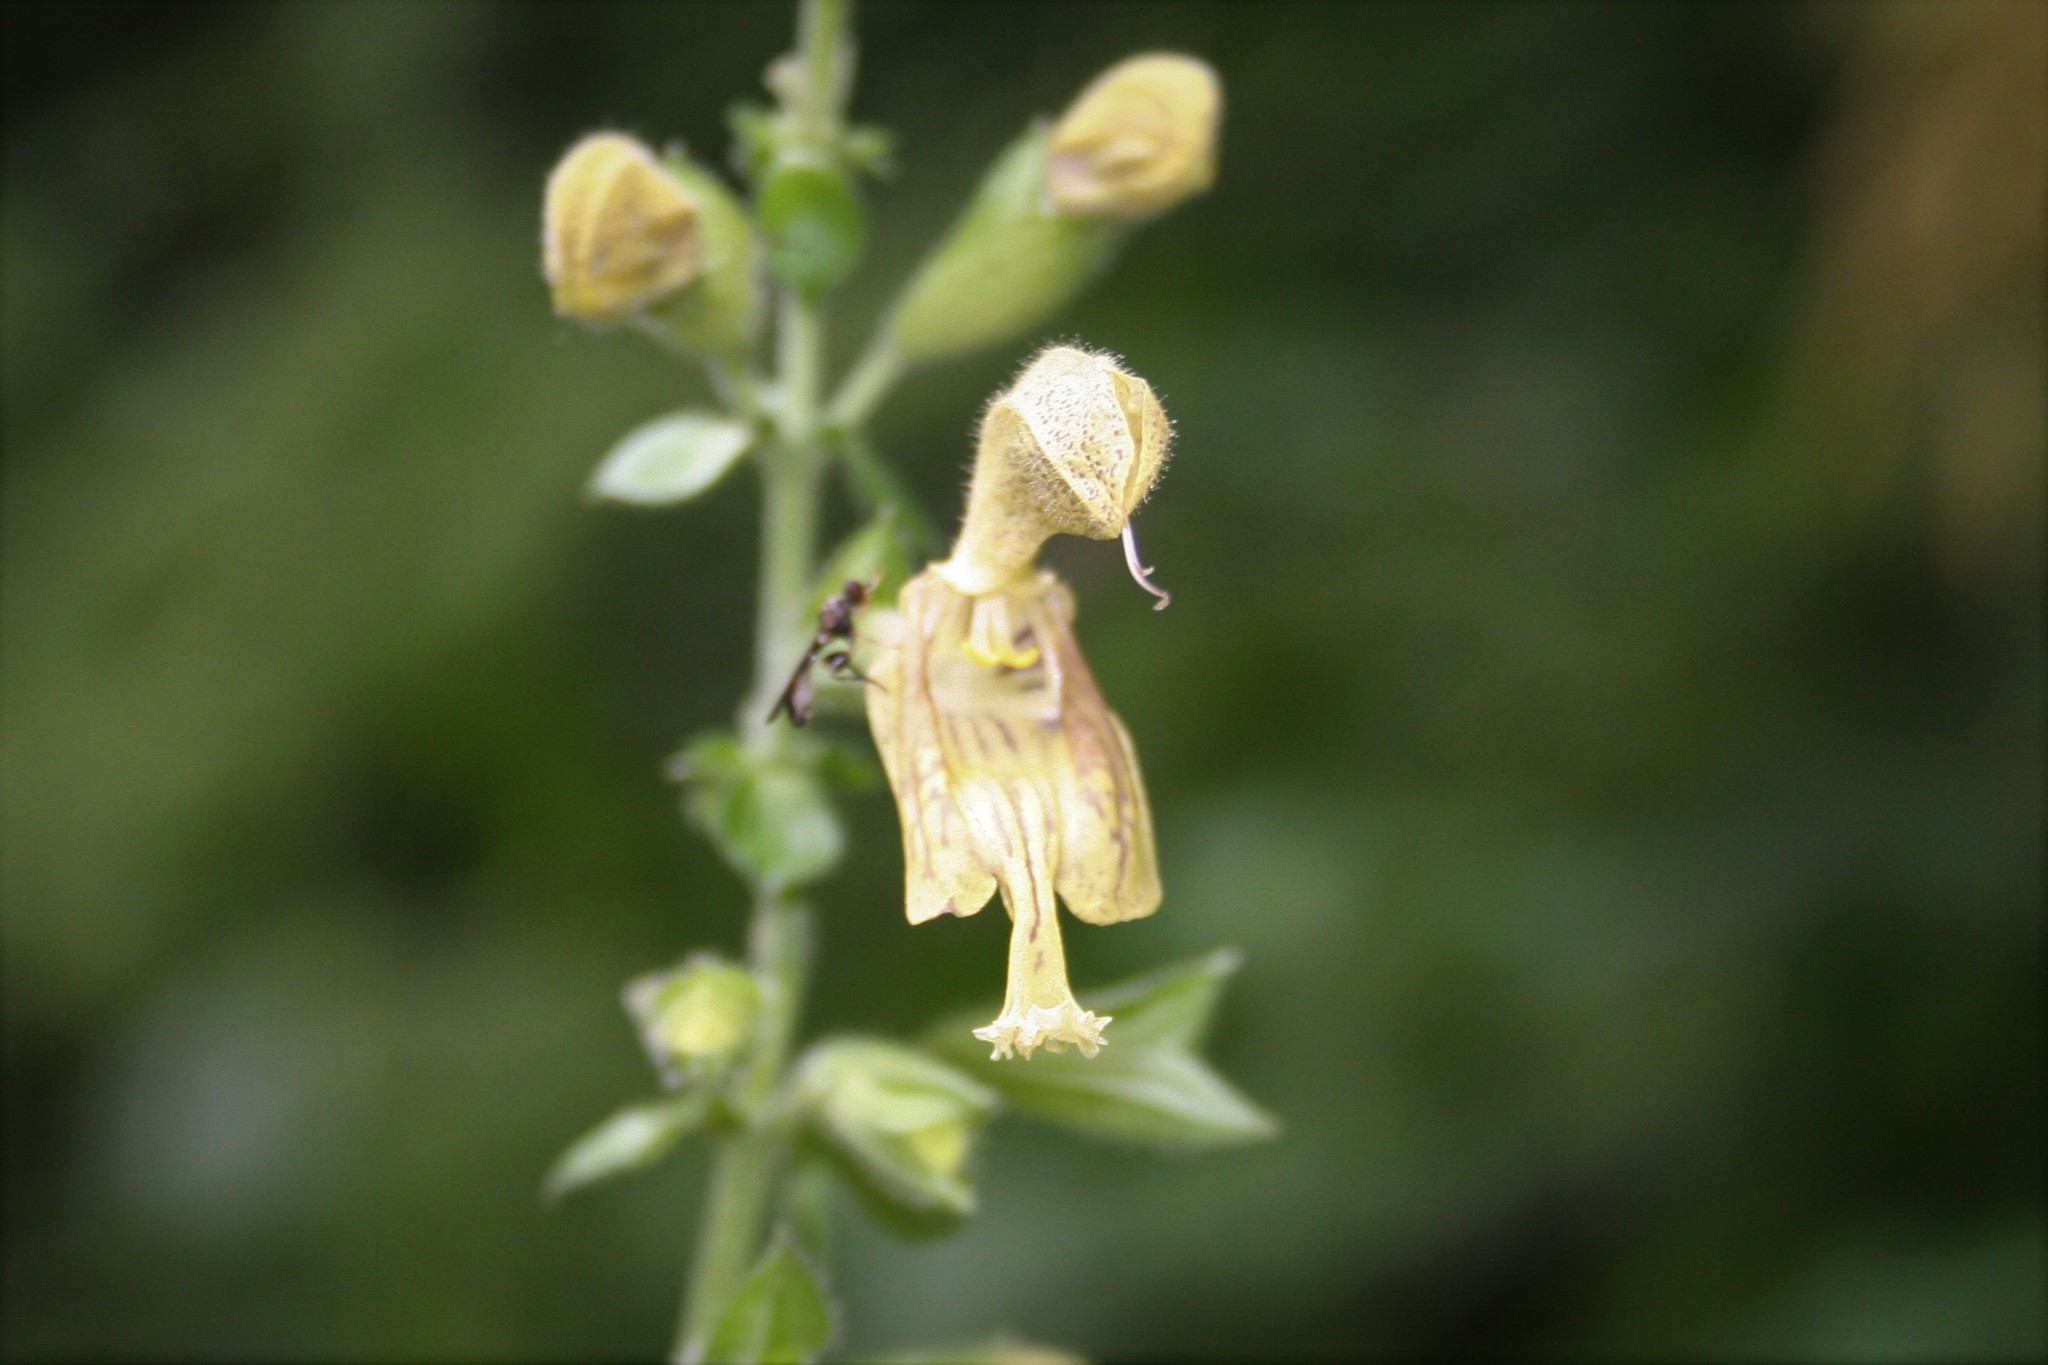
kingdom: Plantae
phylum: Tracheophyta
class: Magnoliopsida
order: Lamiales
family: Lamiaceae
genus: Salvia
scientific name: Salvia glutinosa
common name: Sticky clary
